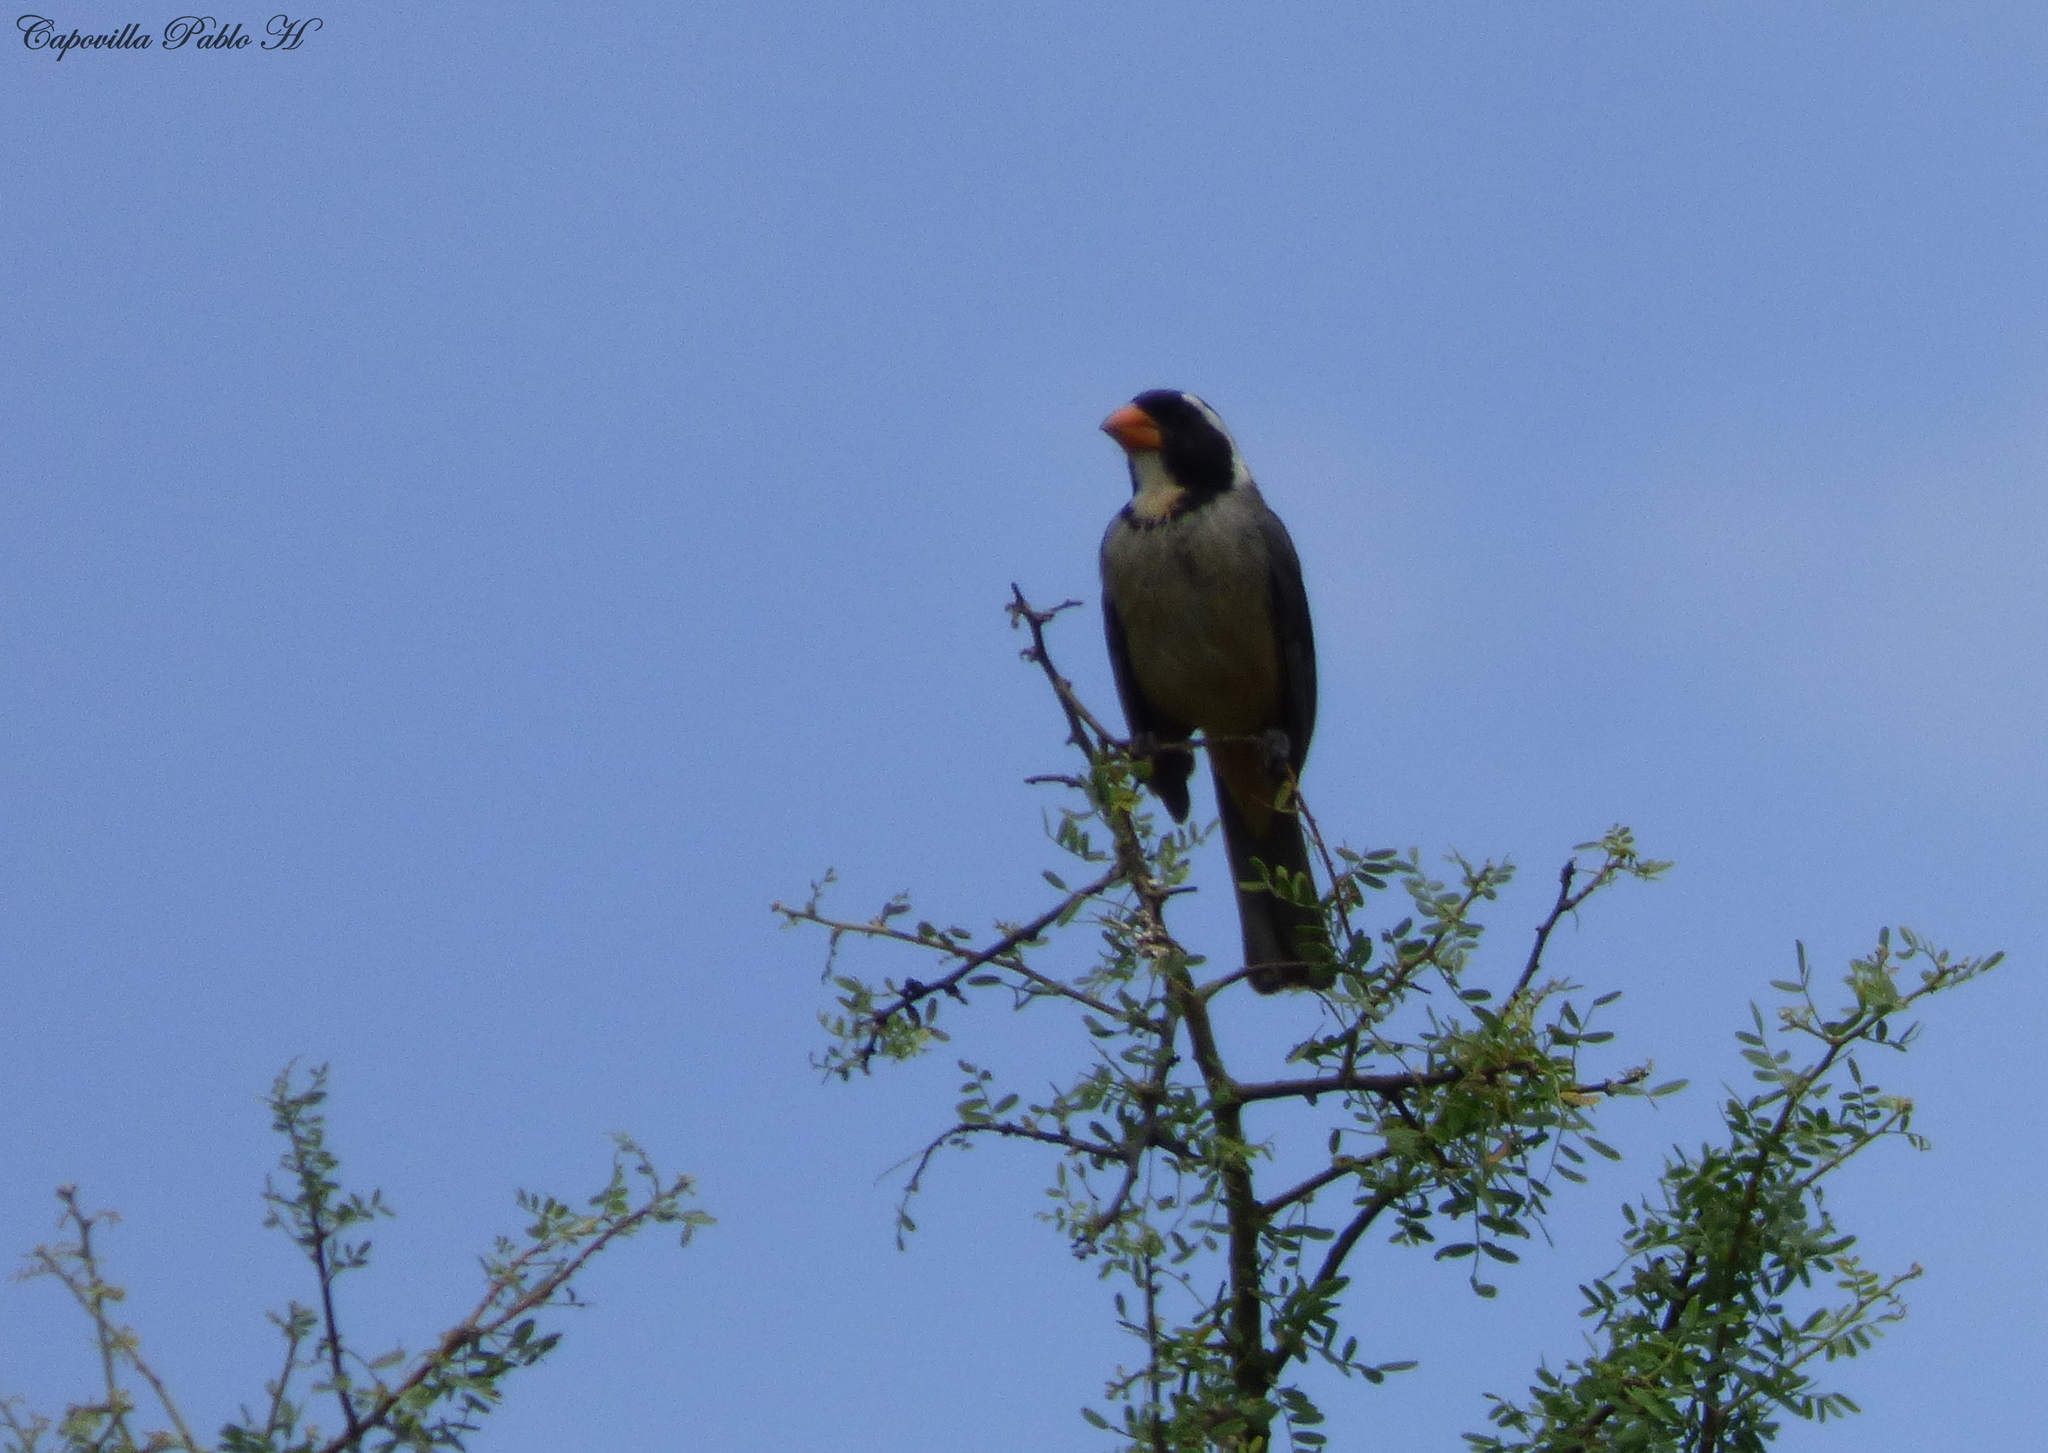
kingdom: Animalia
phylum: Chordata
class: Aves
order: Passeriformes
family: Thraupidae
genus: Saltator
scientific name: Saltator aurantiirostris
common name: Golden-billed saltator
